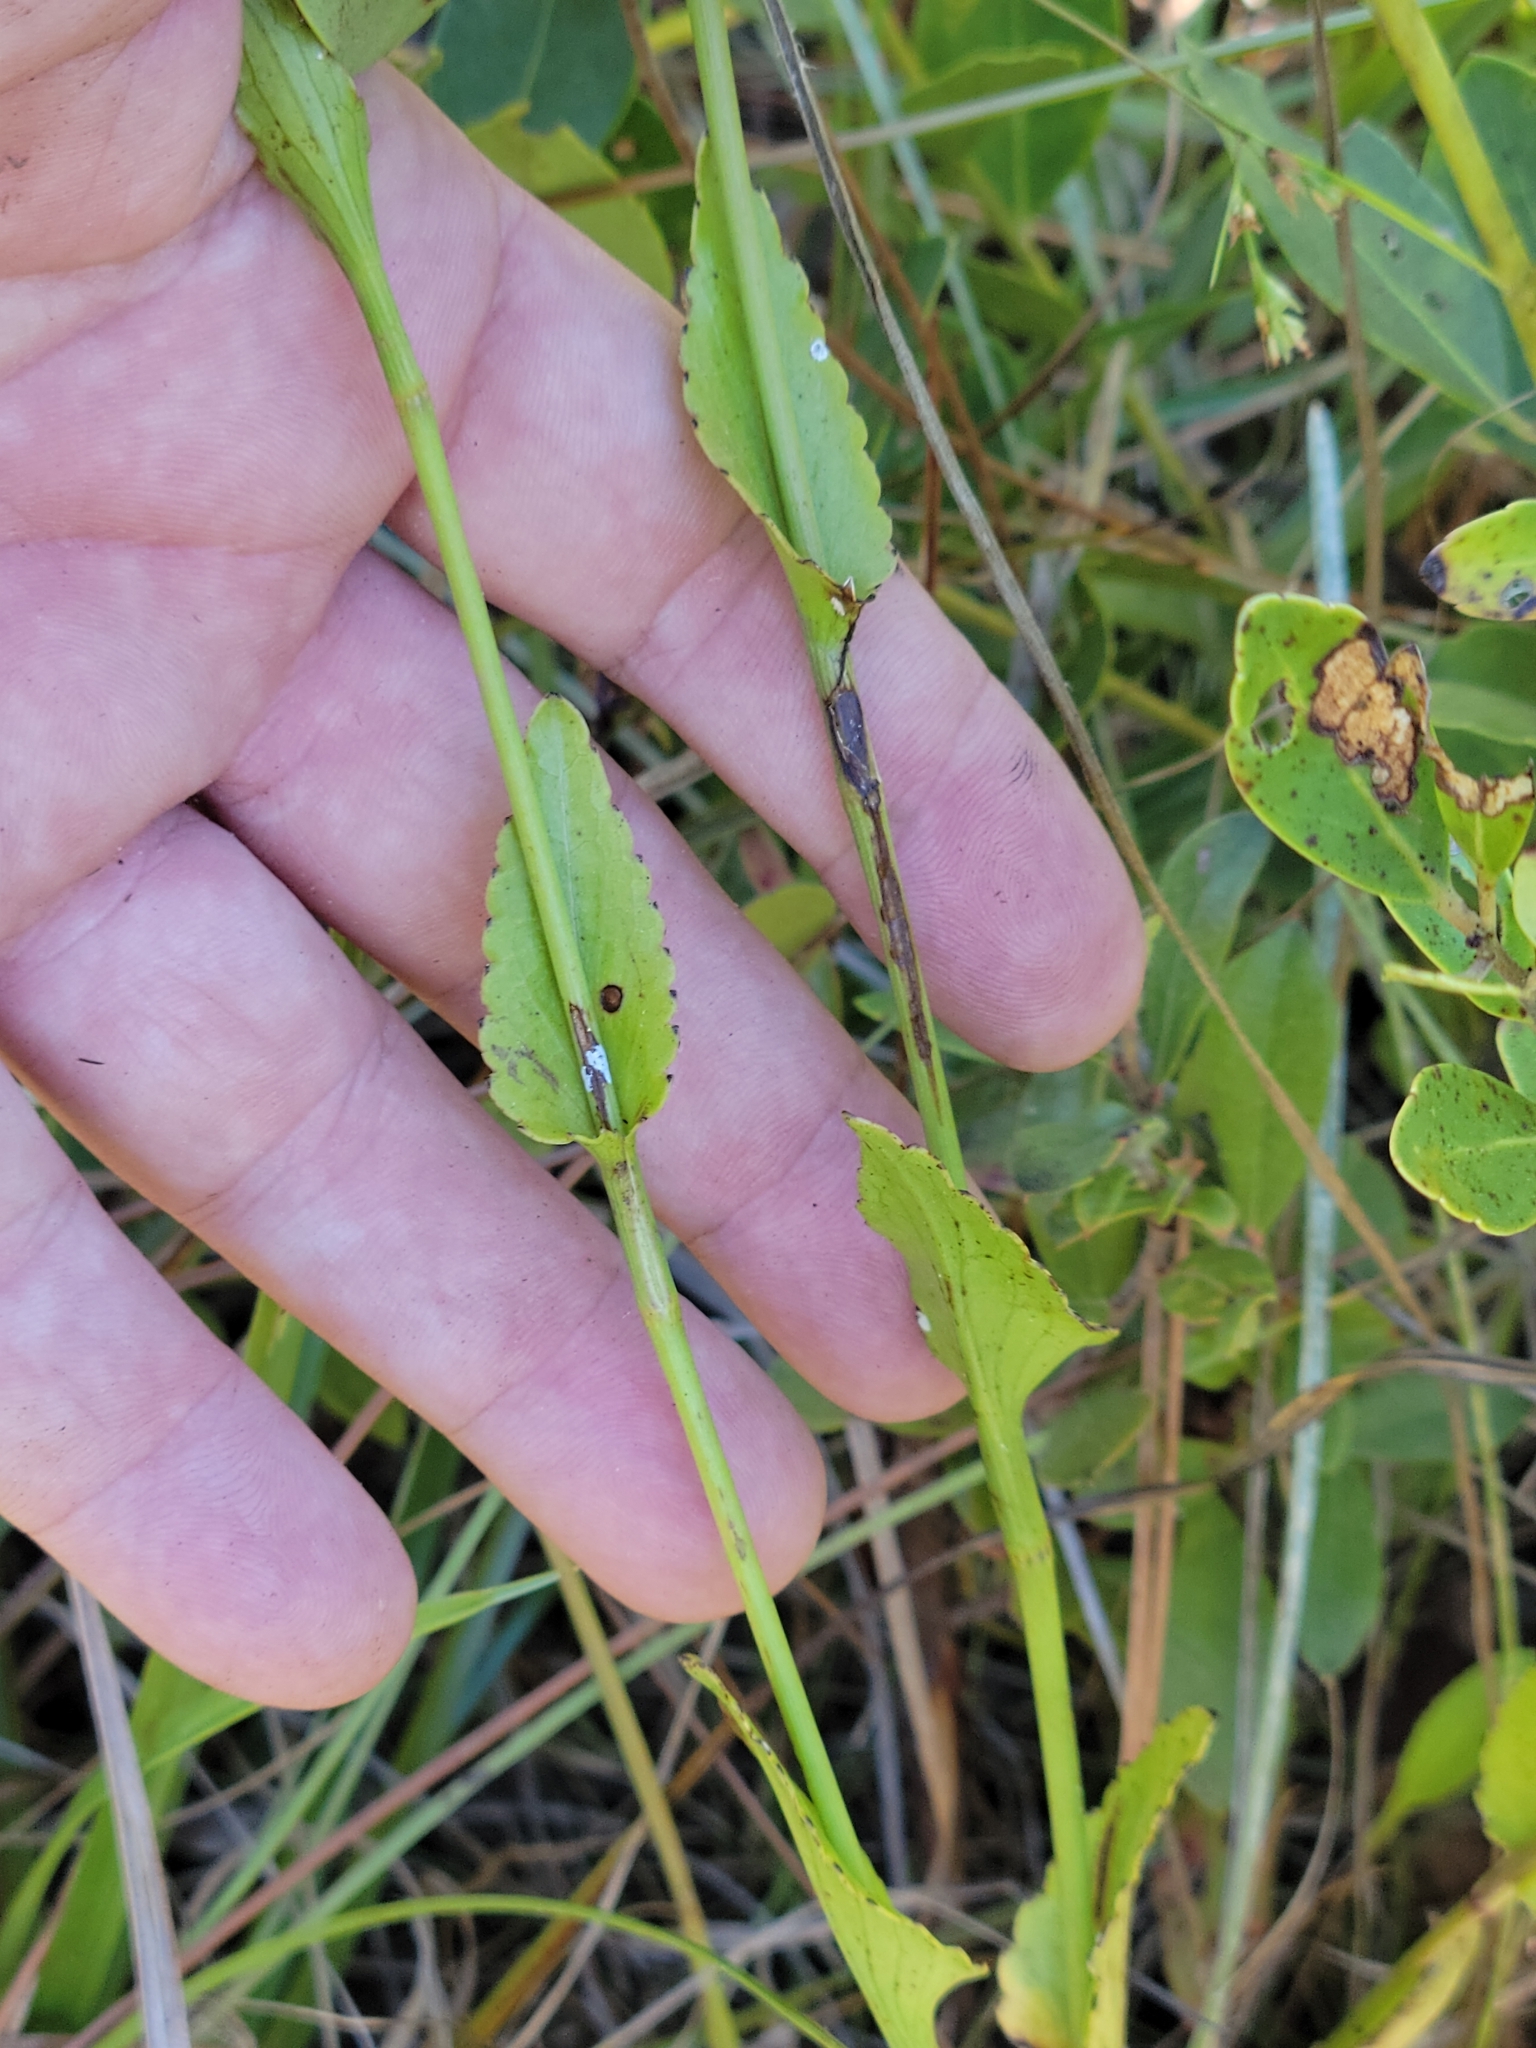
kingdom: Plantae
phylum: Tracheophyta
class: Magnoliopsida
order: Apiales
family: Apiaceae
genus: Eryngium
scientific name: Eryngium integrifolium
